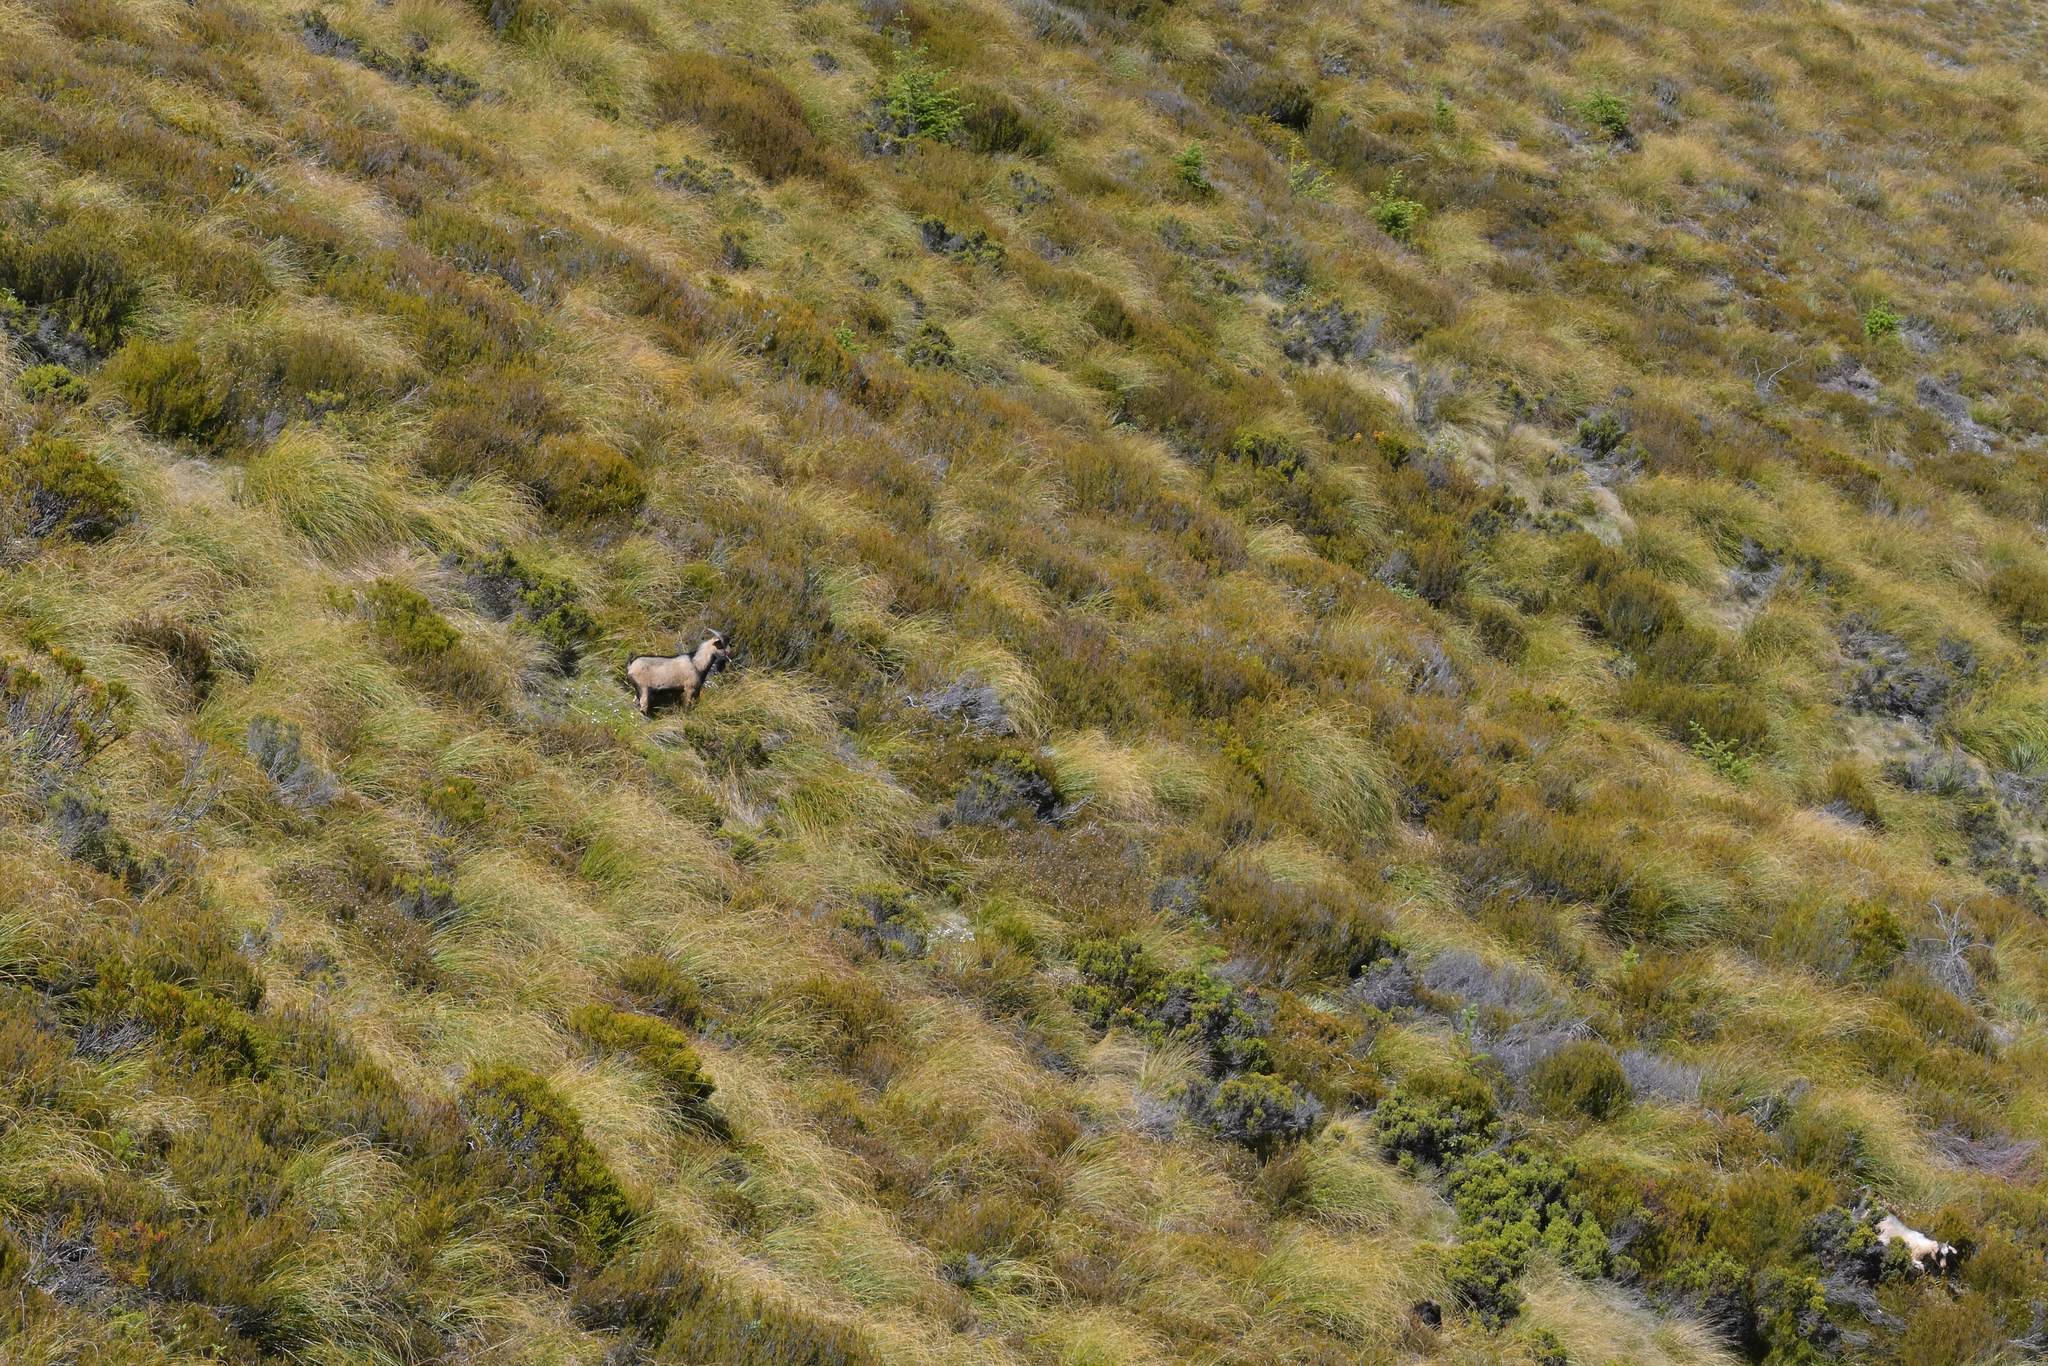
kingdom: Animalia
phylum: Chordata
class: Mammalia
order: Artiodactyla
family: Bovidae
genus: Capra
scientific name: Capra hircus
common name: Domestic goat
